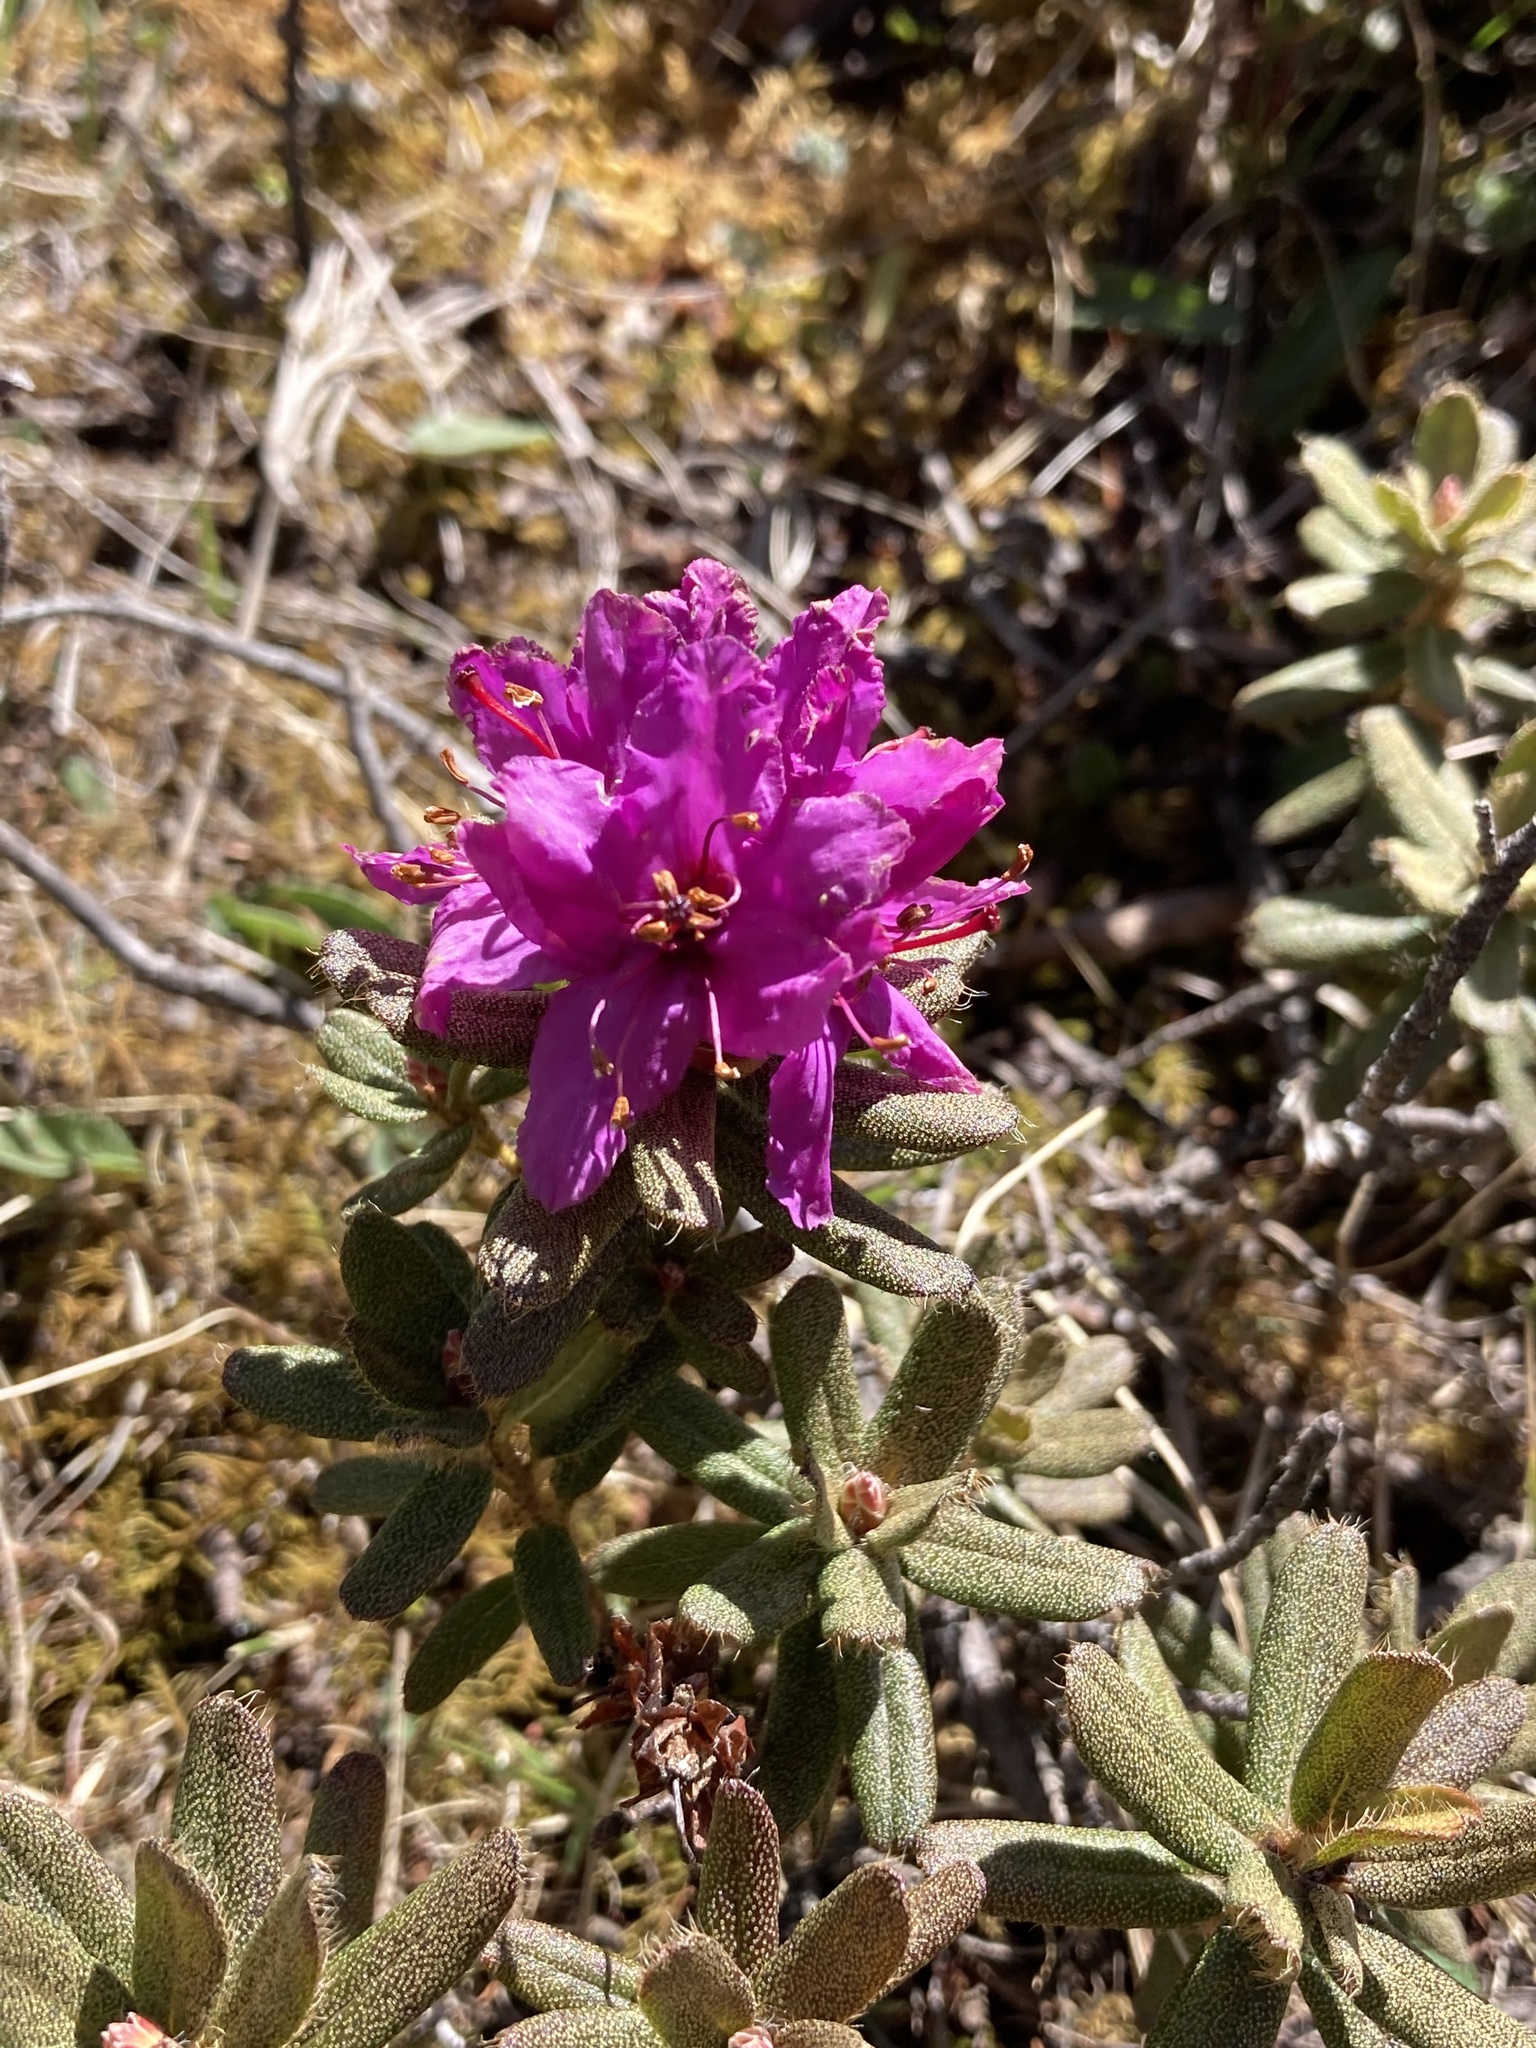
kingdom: Plantae
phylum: Tracheophyta
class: Magnoliopsida
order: Ericales
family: Ericaceae
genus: Rhododendron
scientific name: Rhododendron setosum
